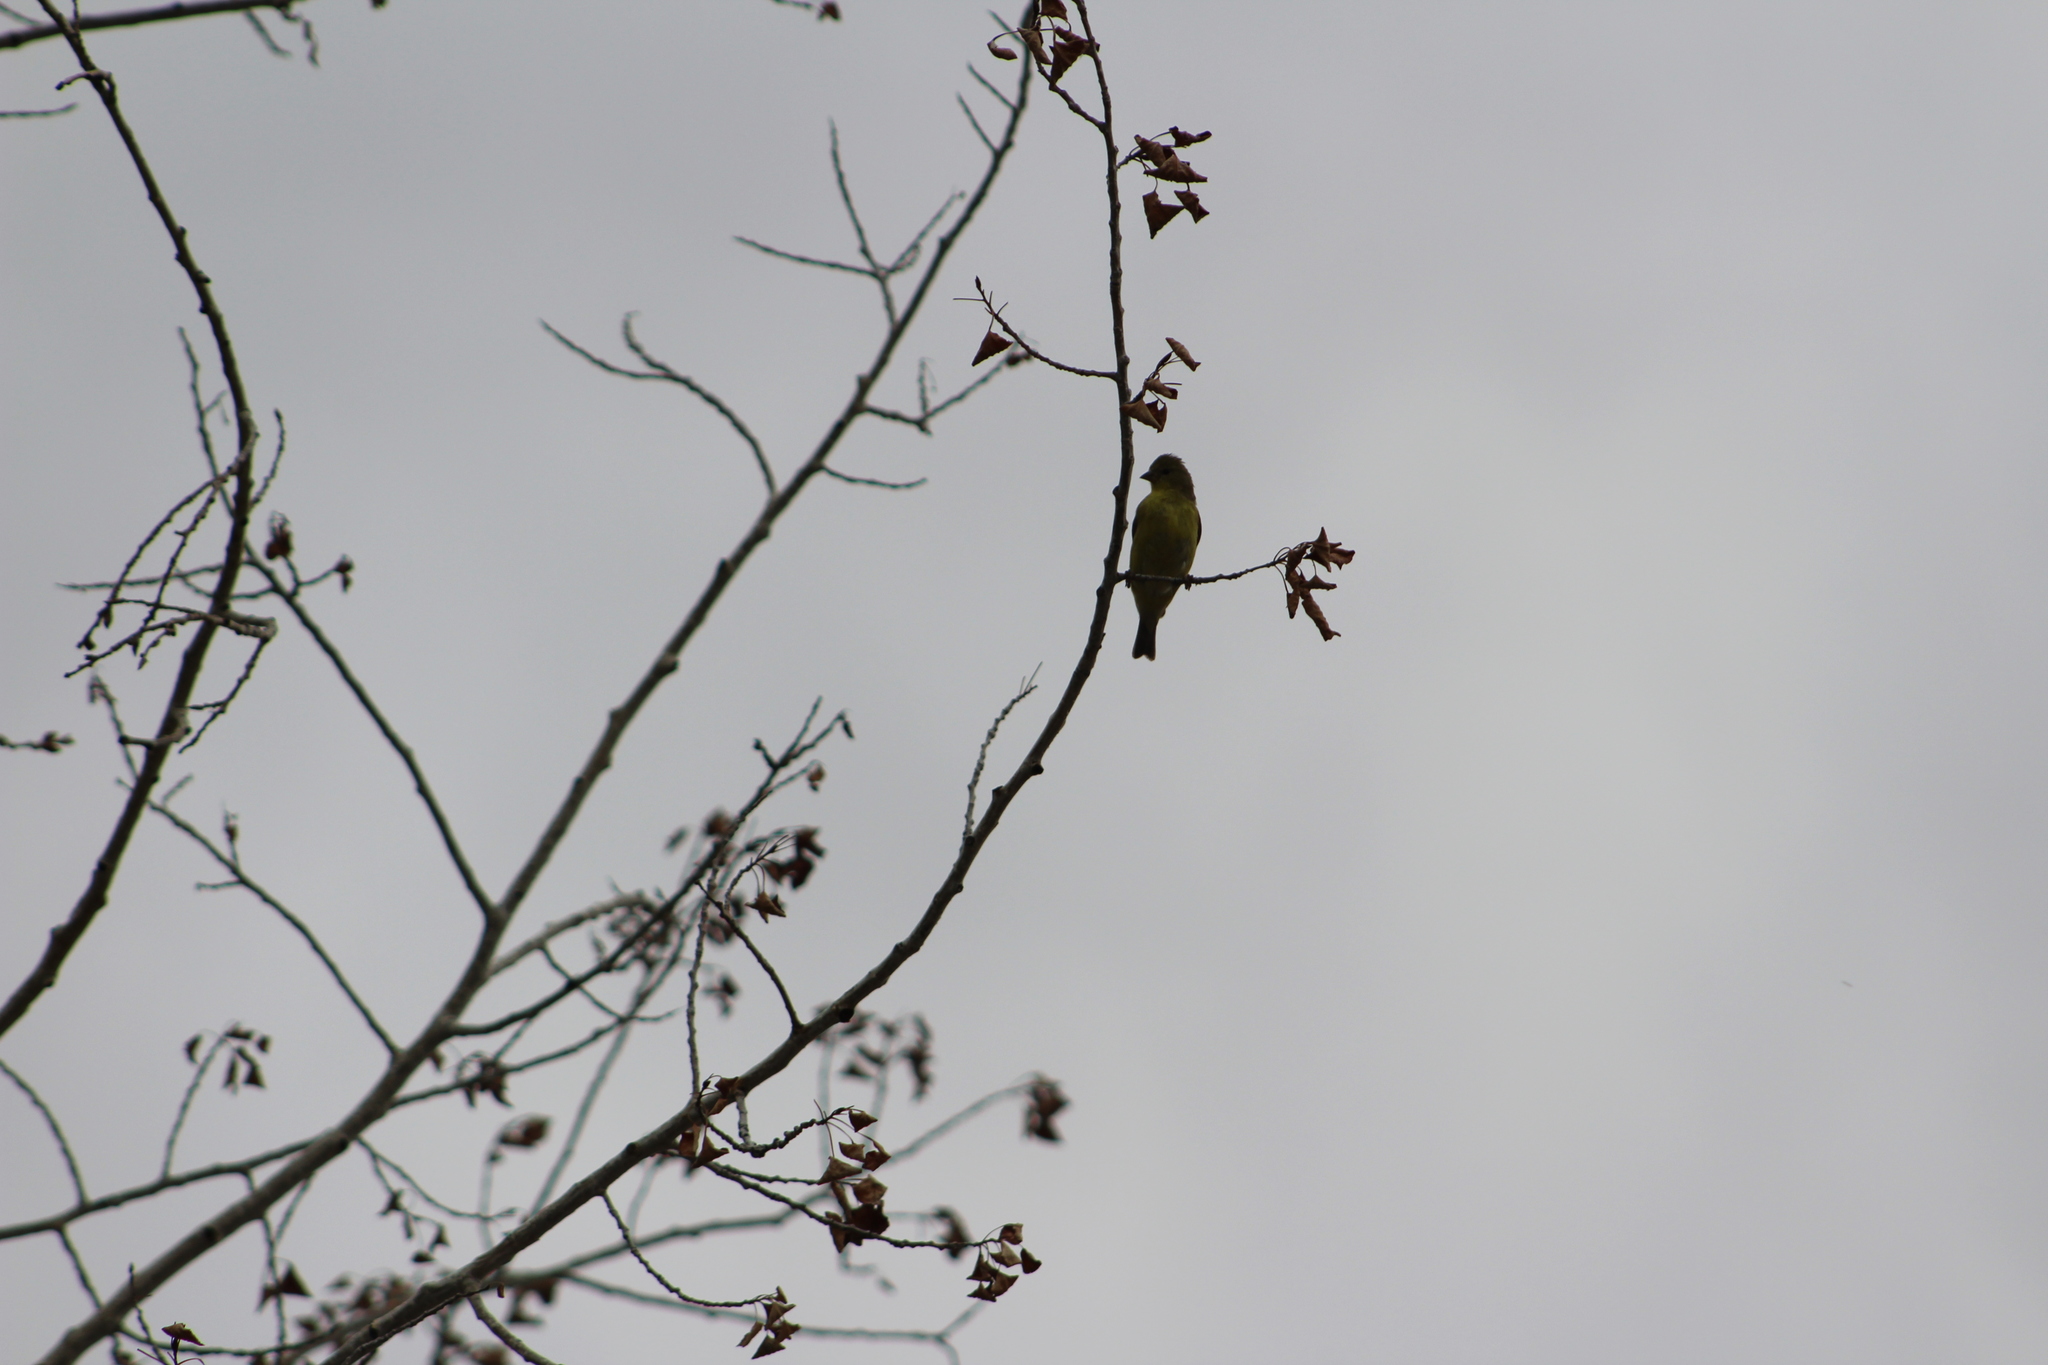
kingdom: Animalia
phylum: Chordata
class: Aves
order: Passeriformes
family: Fringillidae
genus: Spinus
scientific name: Spinus psaltria
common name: Lesser goldfinch
